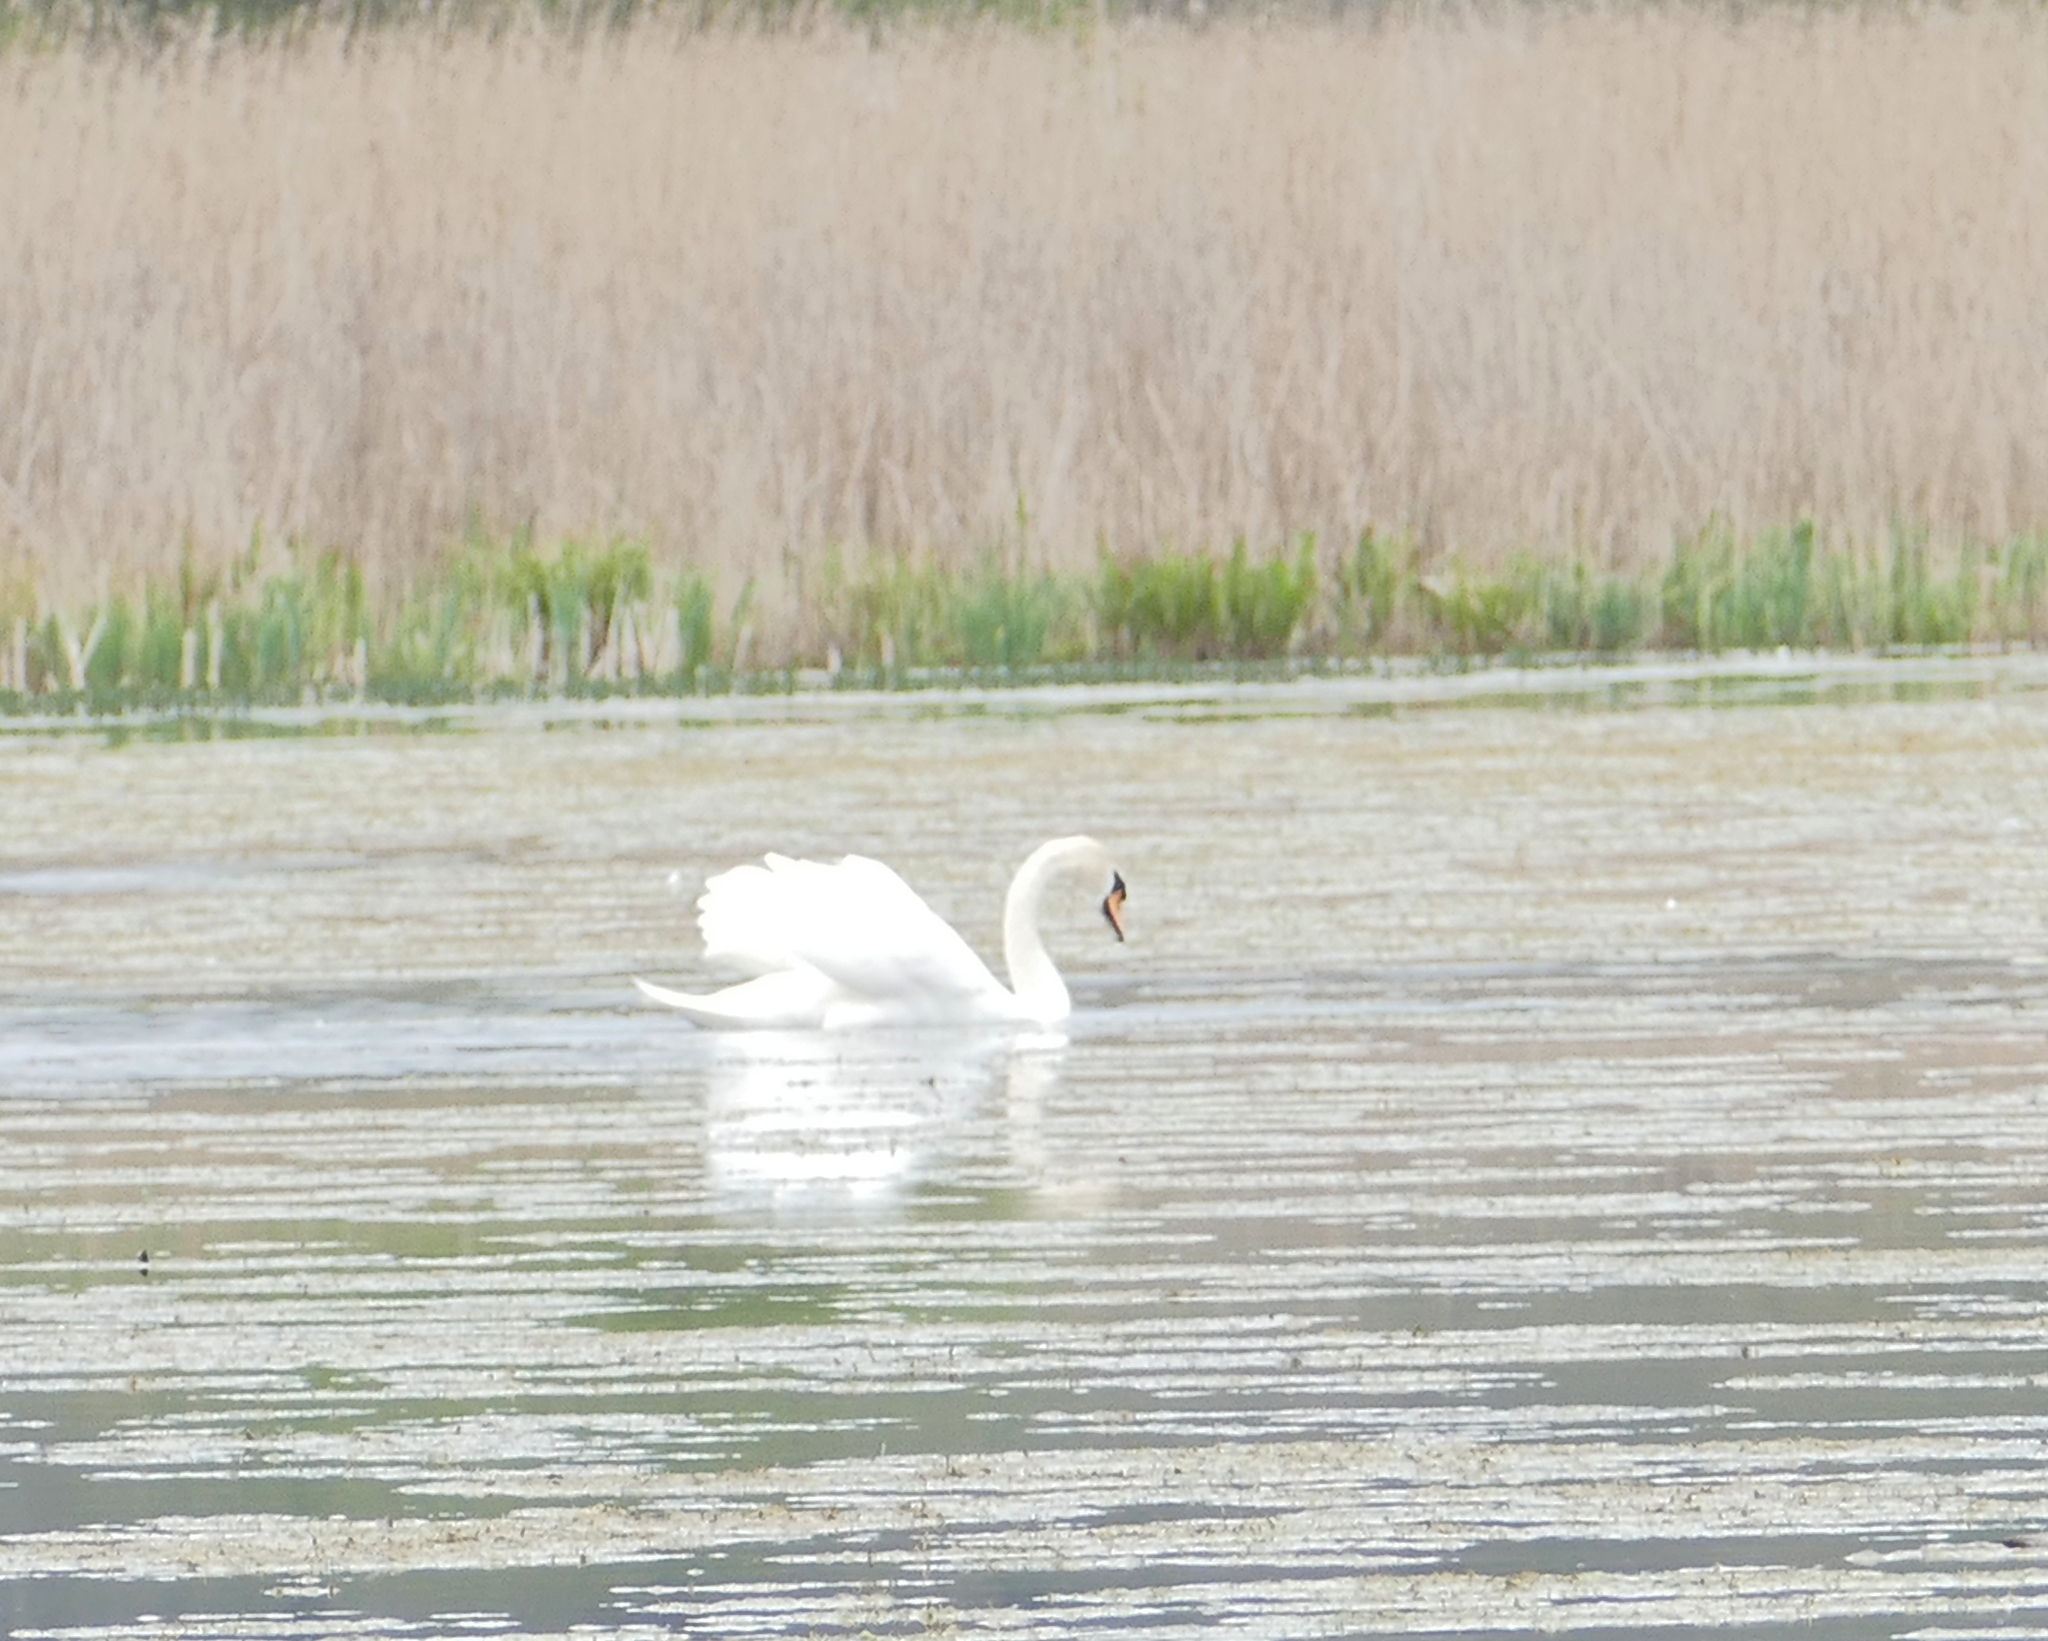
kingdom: Animalia
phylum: Chordata
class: Aves
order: Anseriformes
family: Anatidae
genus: Cygnus
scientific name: Cygnus olor
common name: Mute swan
